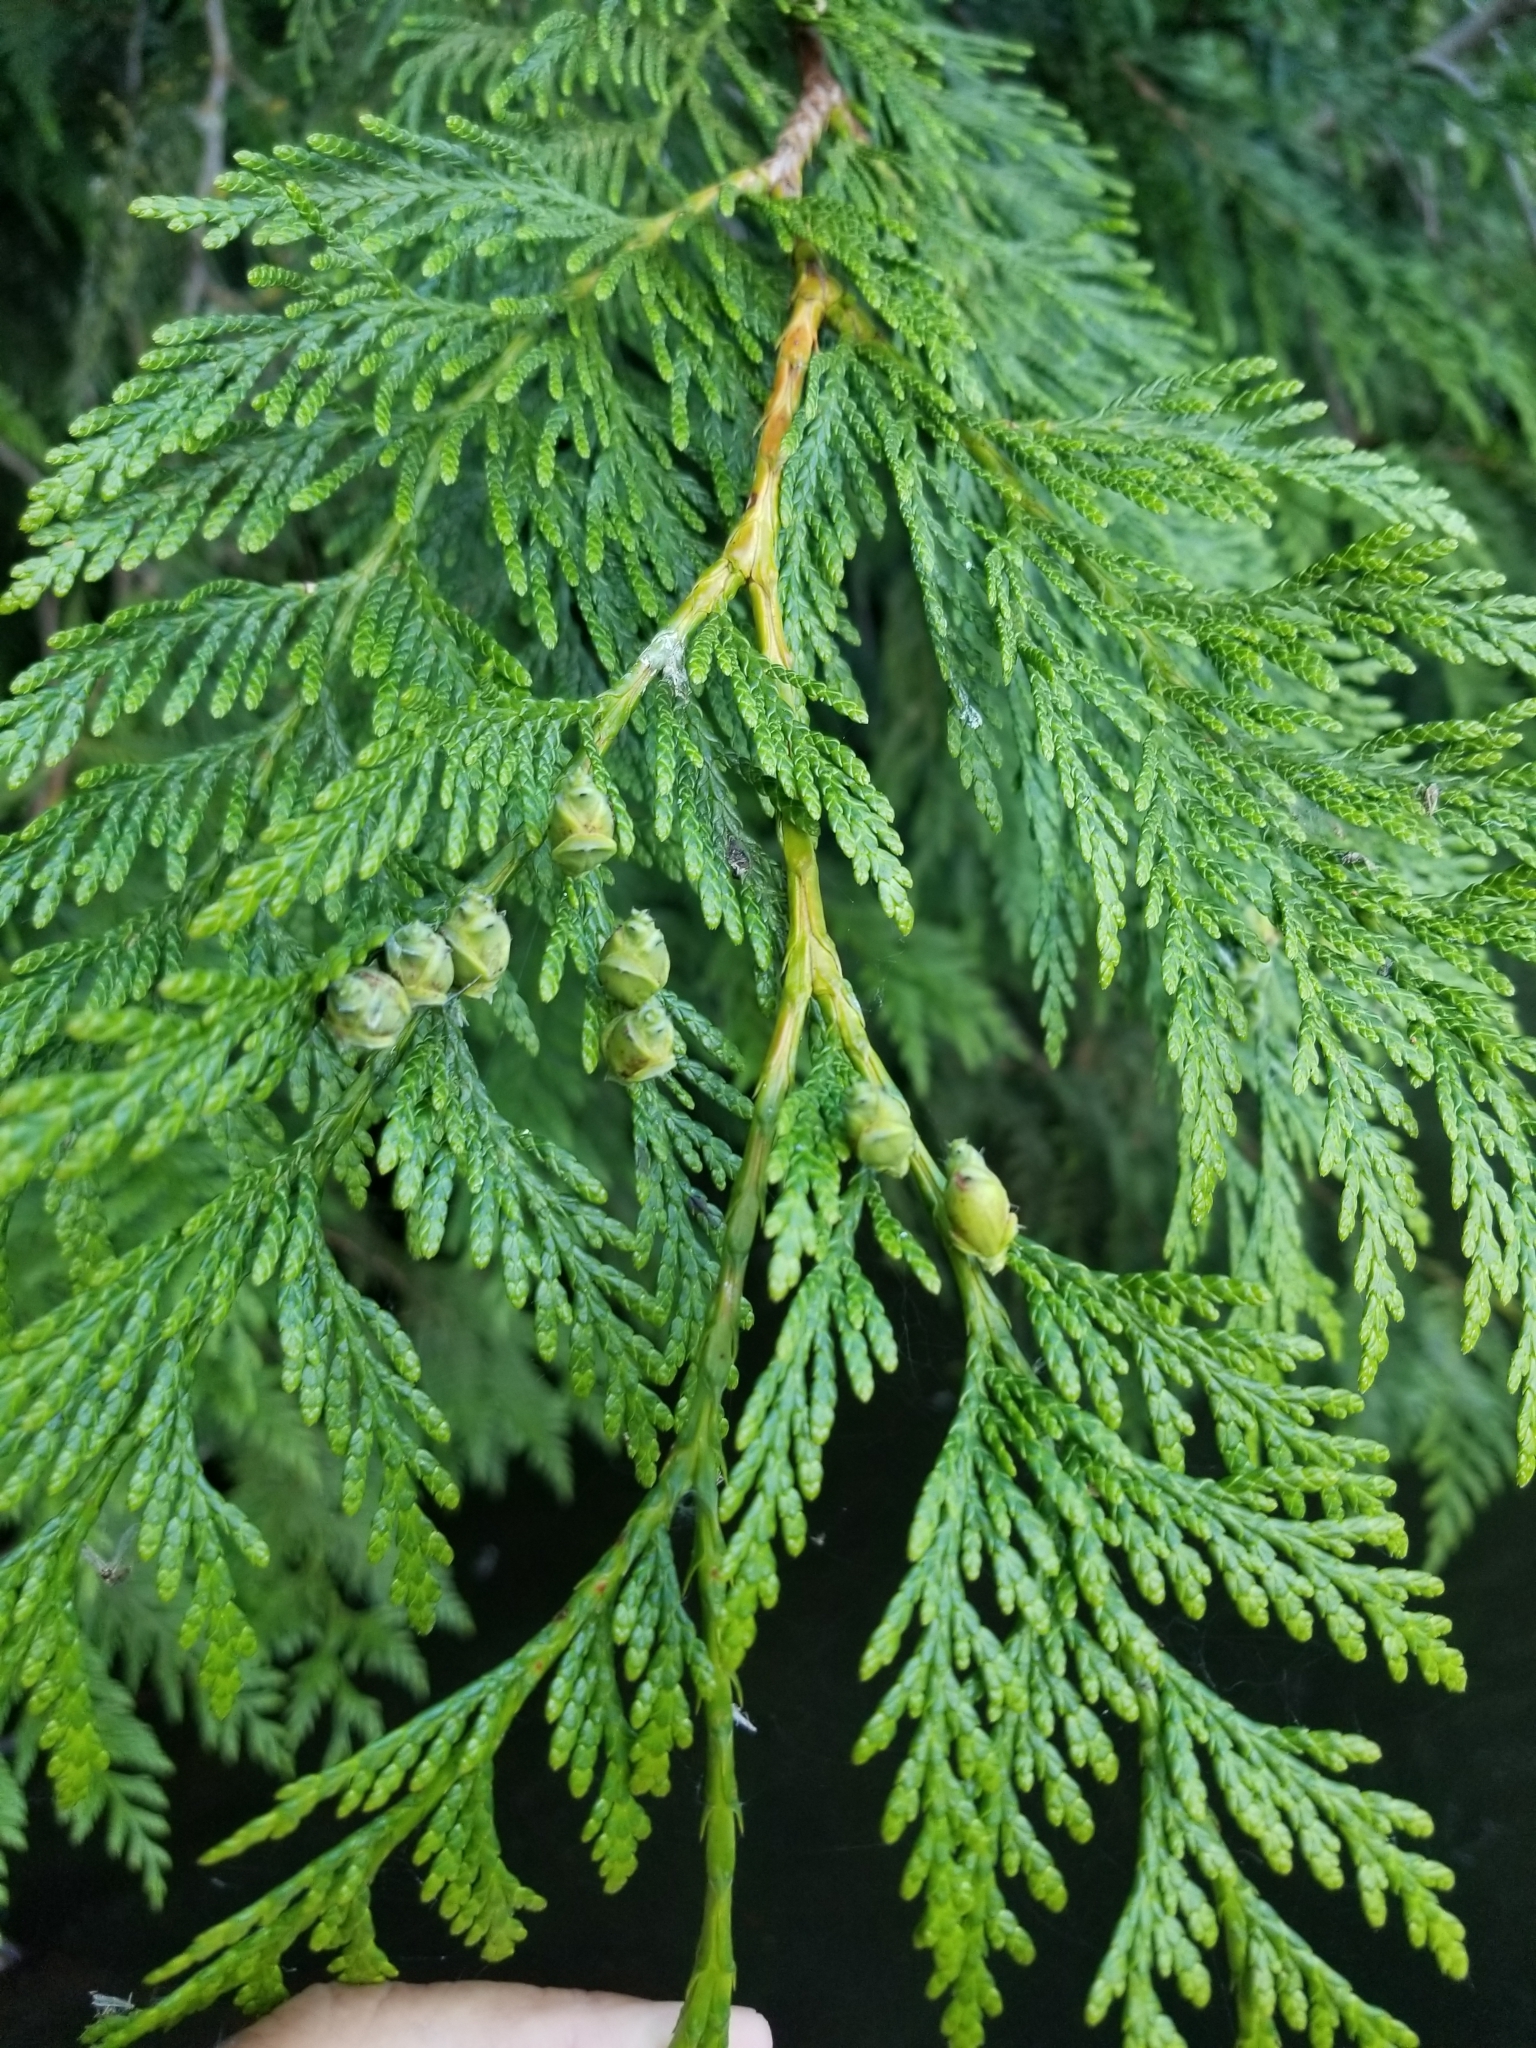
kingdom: Plantae
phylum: Tracheophyta
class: Pinopsida
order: Pinales
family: Cupressaceae
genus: Thuja
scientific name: Thuja plicata
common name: Western red-cedar
